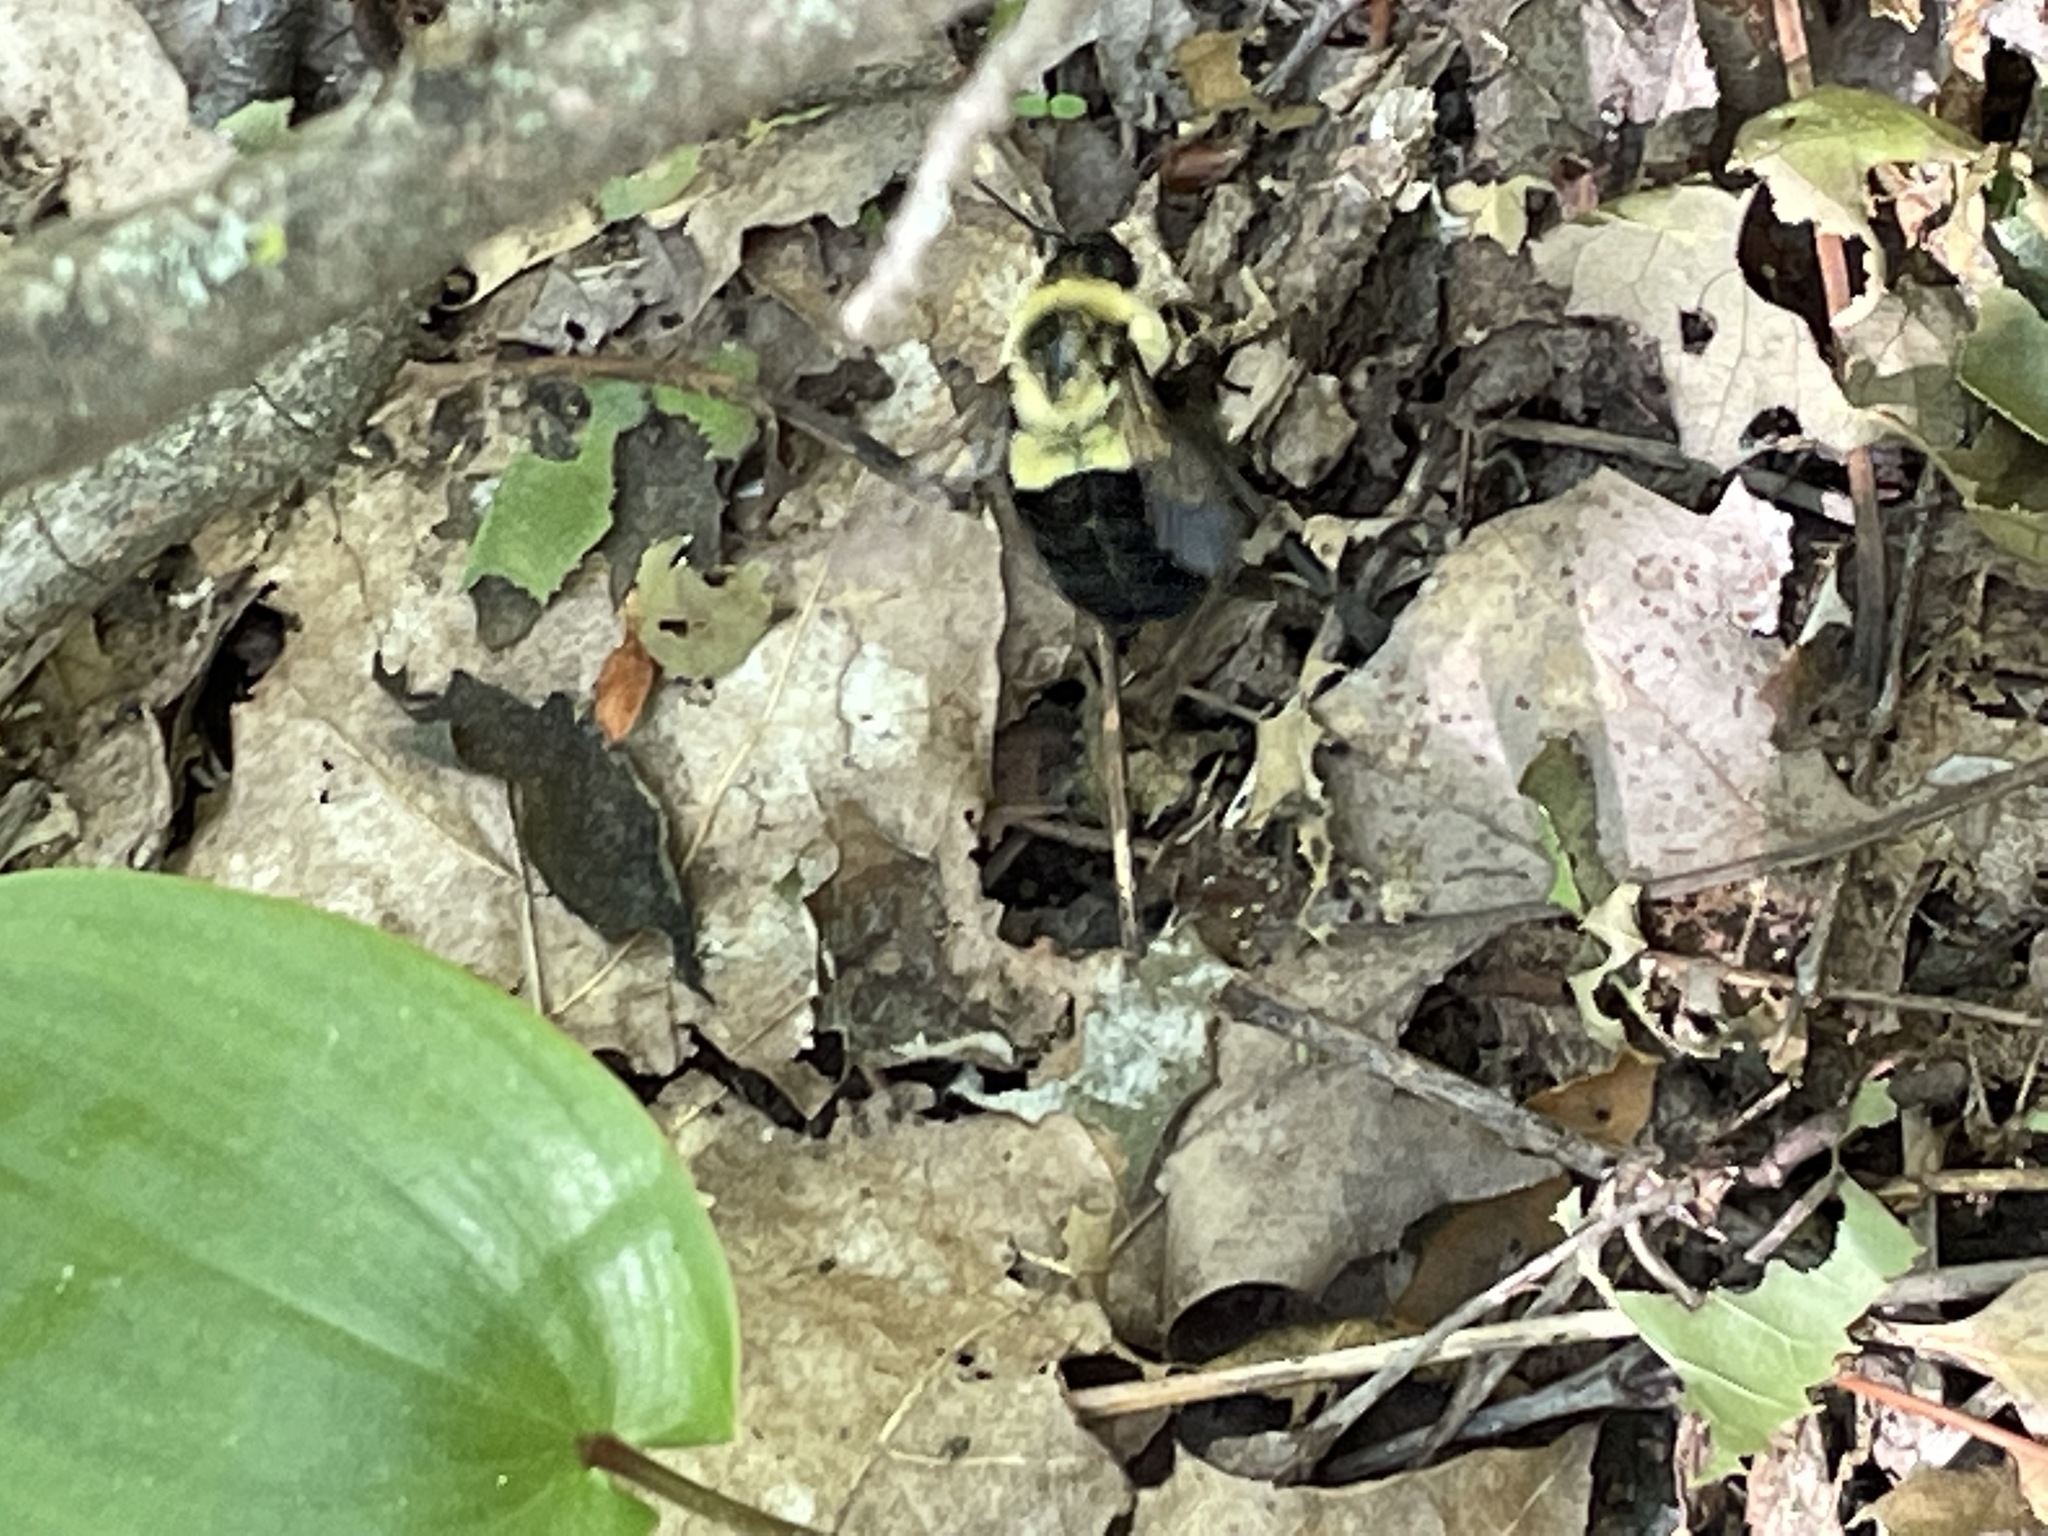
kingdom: Animalia
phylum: Arthropoda
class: Insecta
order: Hymenoptera
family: Apidae
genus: Bombus
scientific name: Bombus impatiens
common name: Common eastern bumble bee
